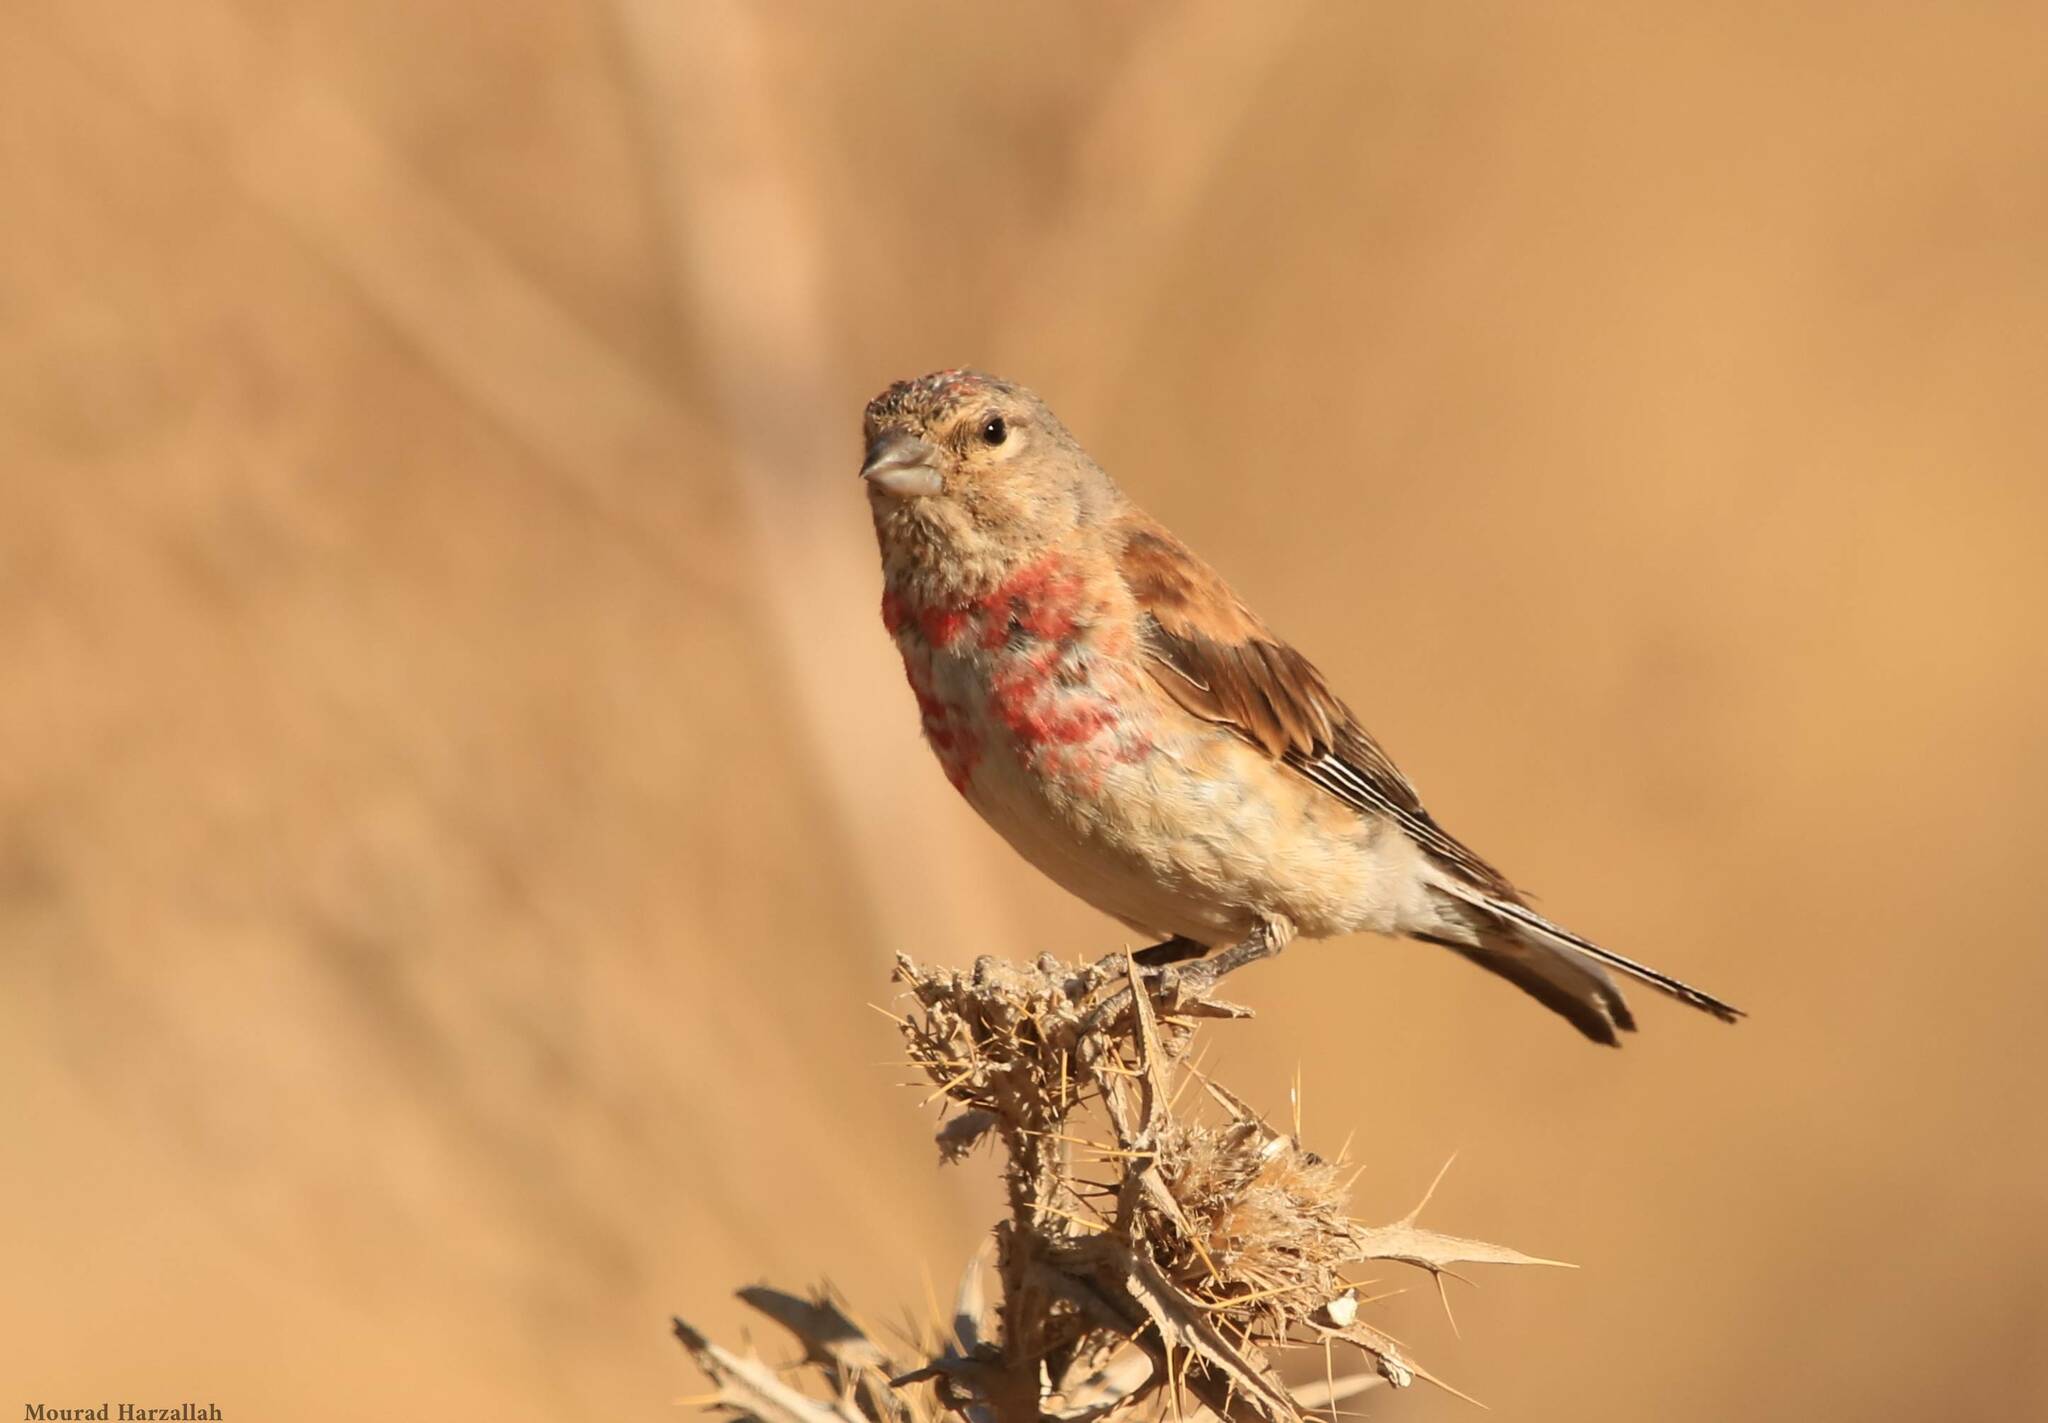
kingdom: Animalia
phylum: Chordata
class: Aves
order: Passeriformes
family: Fringillidae
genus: Linaria
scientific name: Linaria cannabina
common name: Common linnet
